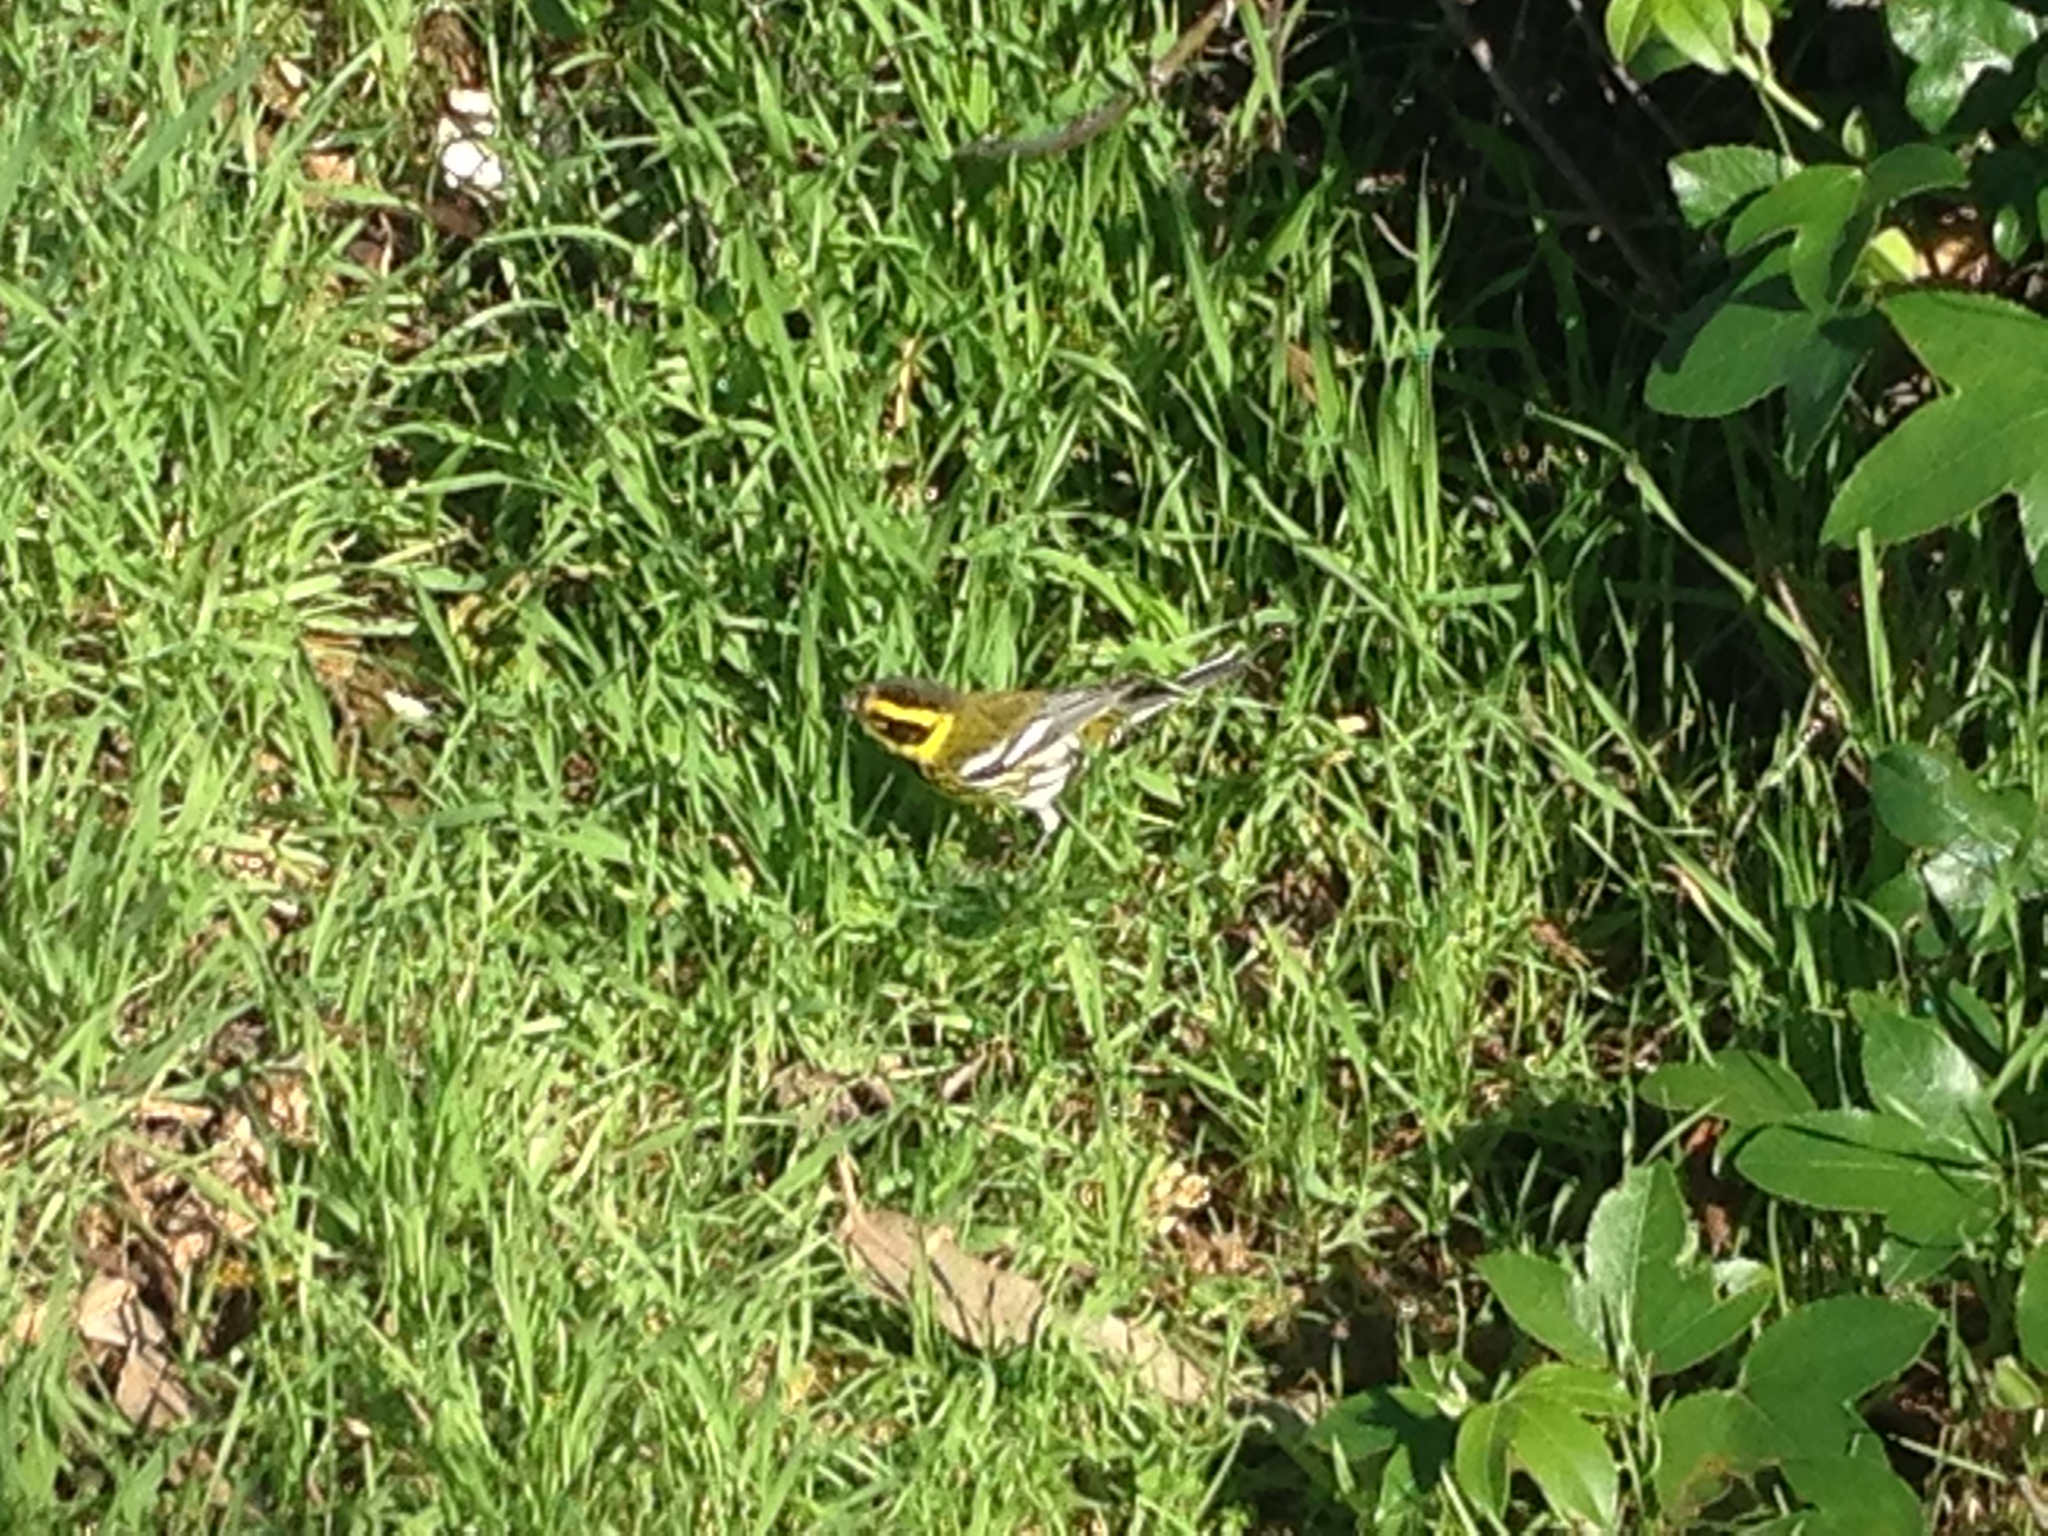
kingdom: Animalia
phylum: Chordata
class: Aves
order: Passeriformes
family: Parulidae
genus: Setophaga
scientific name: Setophaga townsendi
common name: Townsend's warbler
